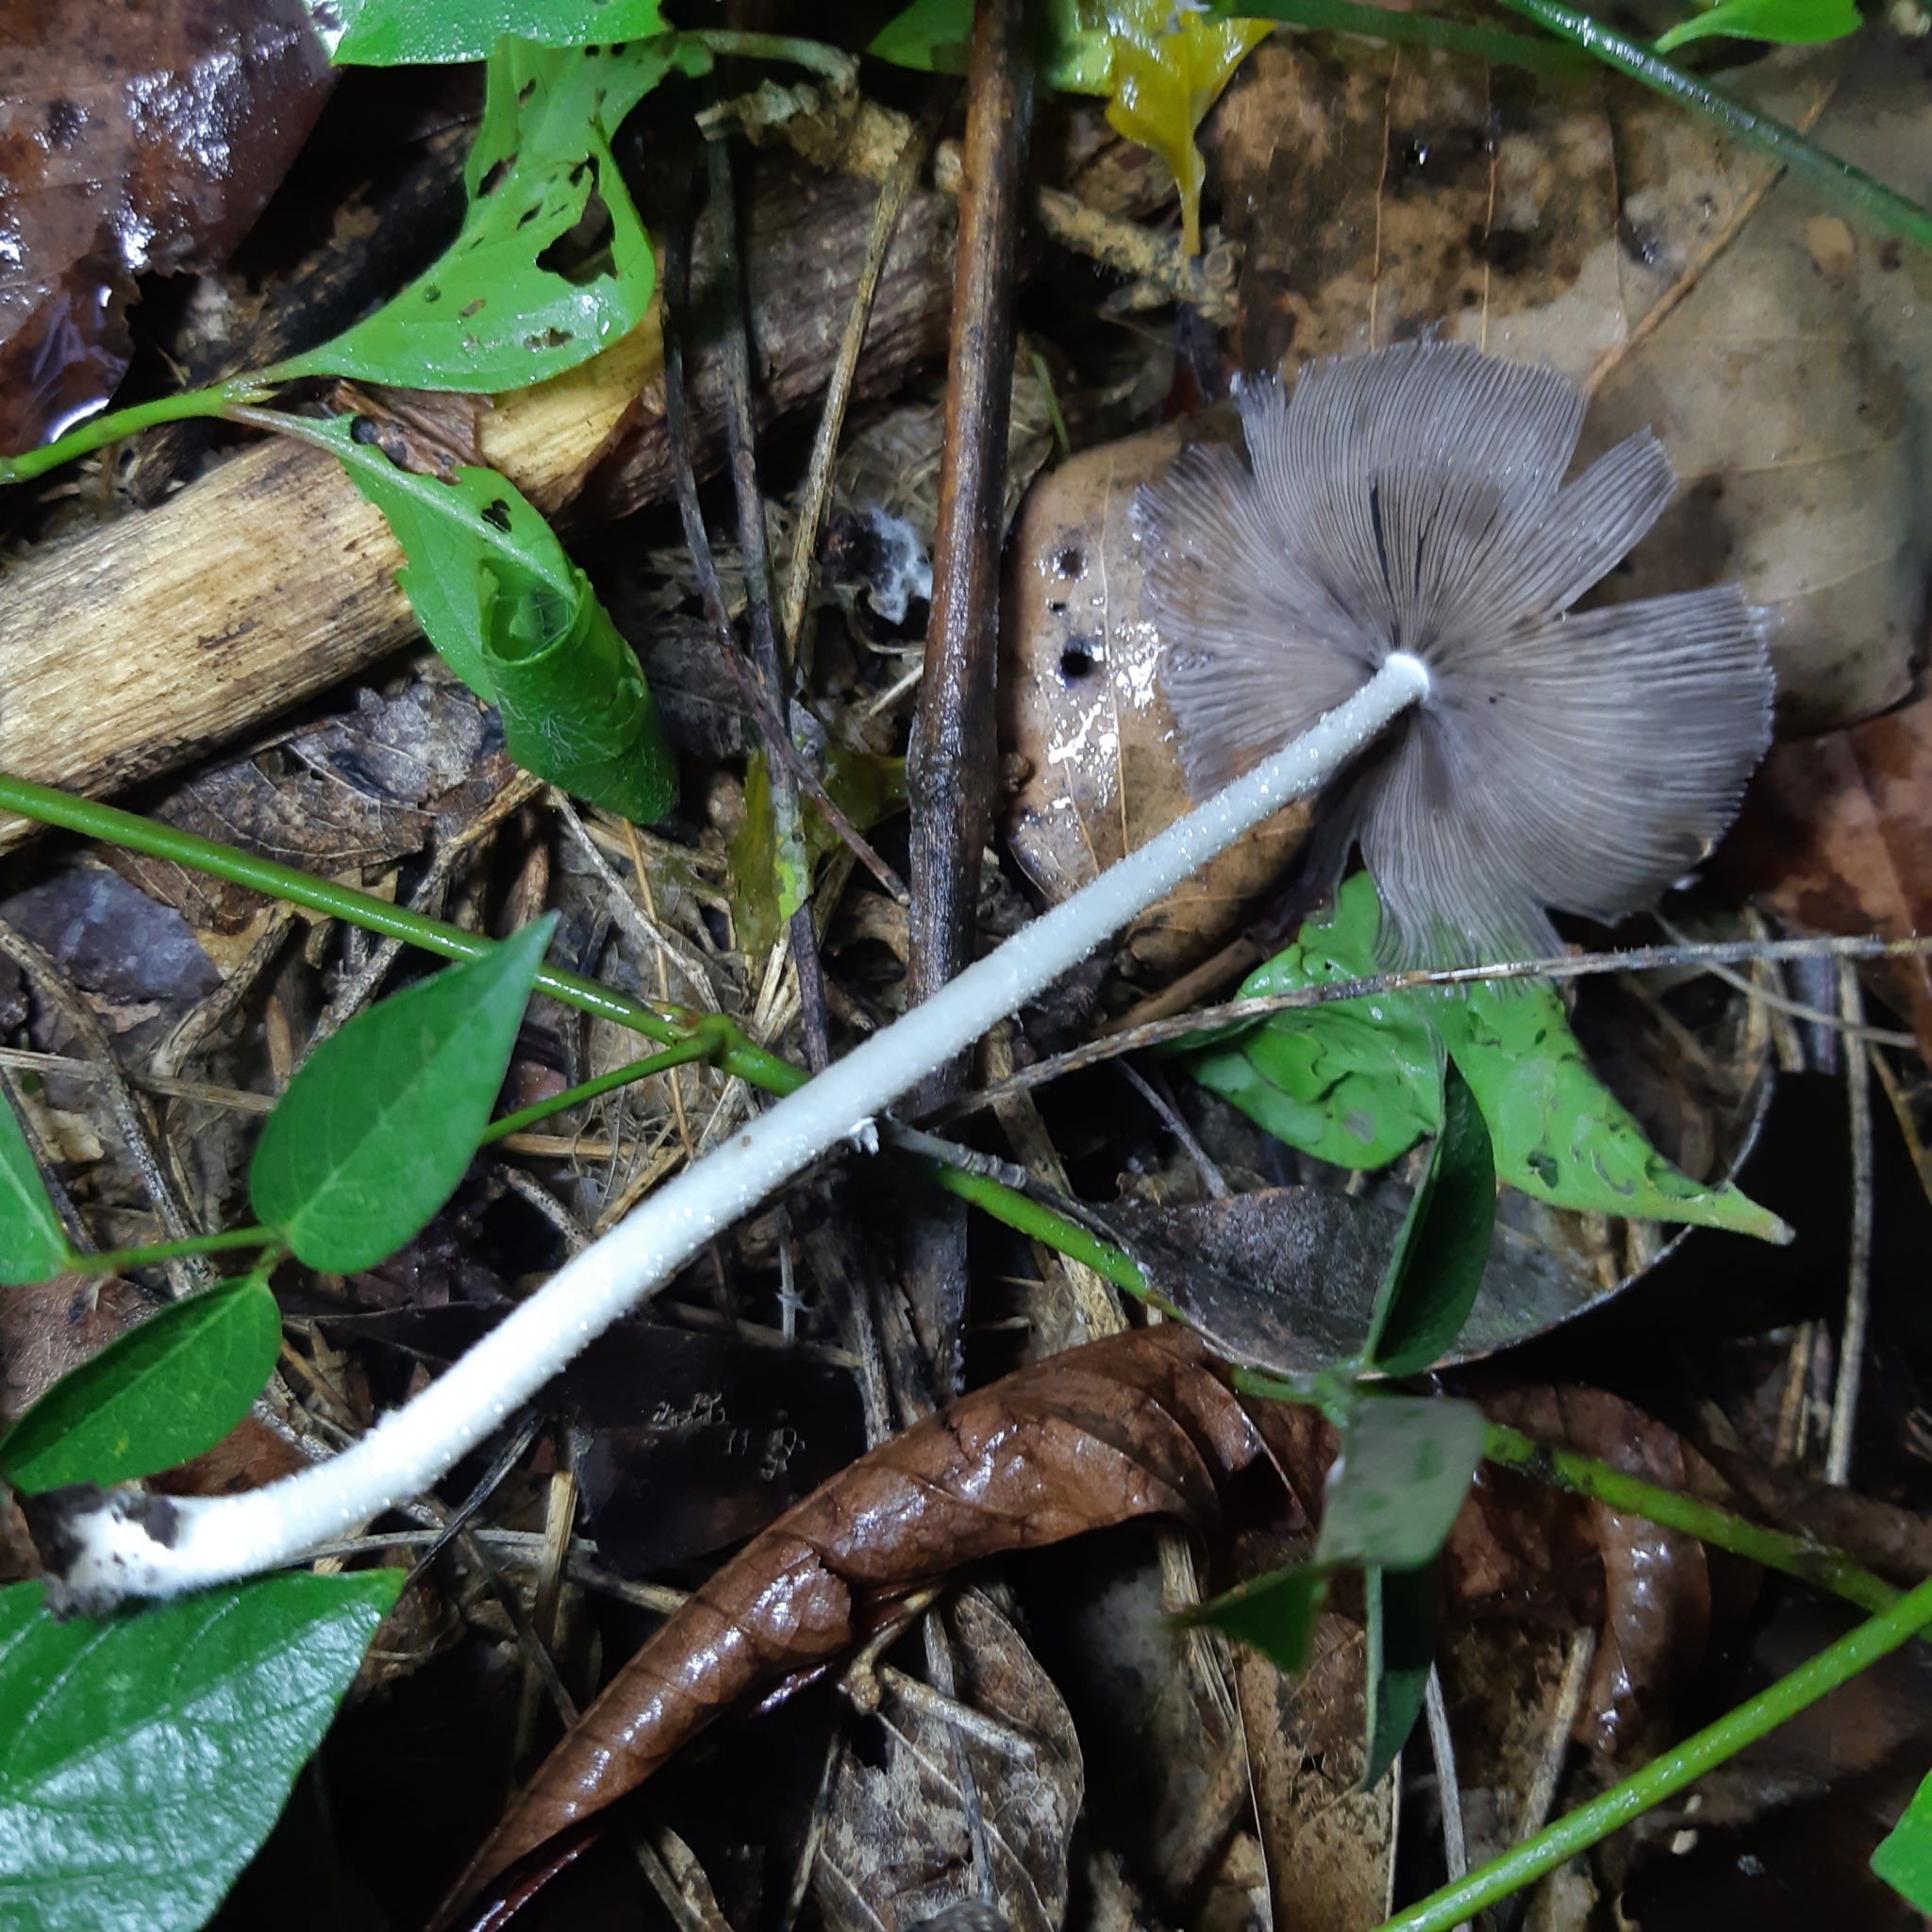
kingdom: Fungi
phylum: Basidiomycota
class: Agaricomycetes
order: Agaricales
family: Psathyrellaceae
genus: Coprinopsis
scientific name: Coprinopsis lagopus
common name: Hare'sfoot inkcap
